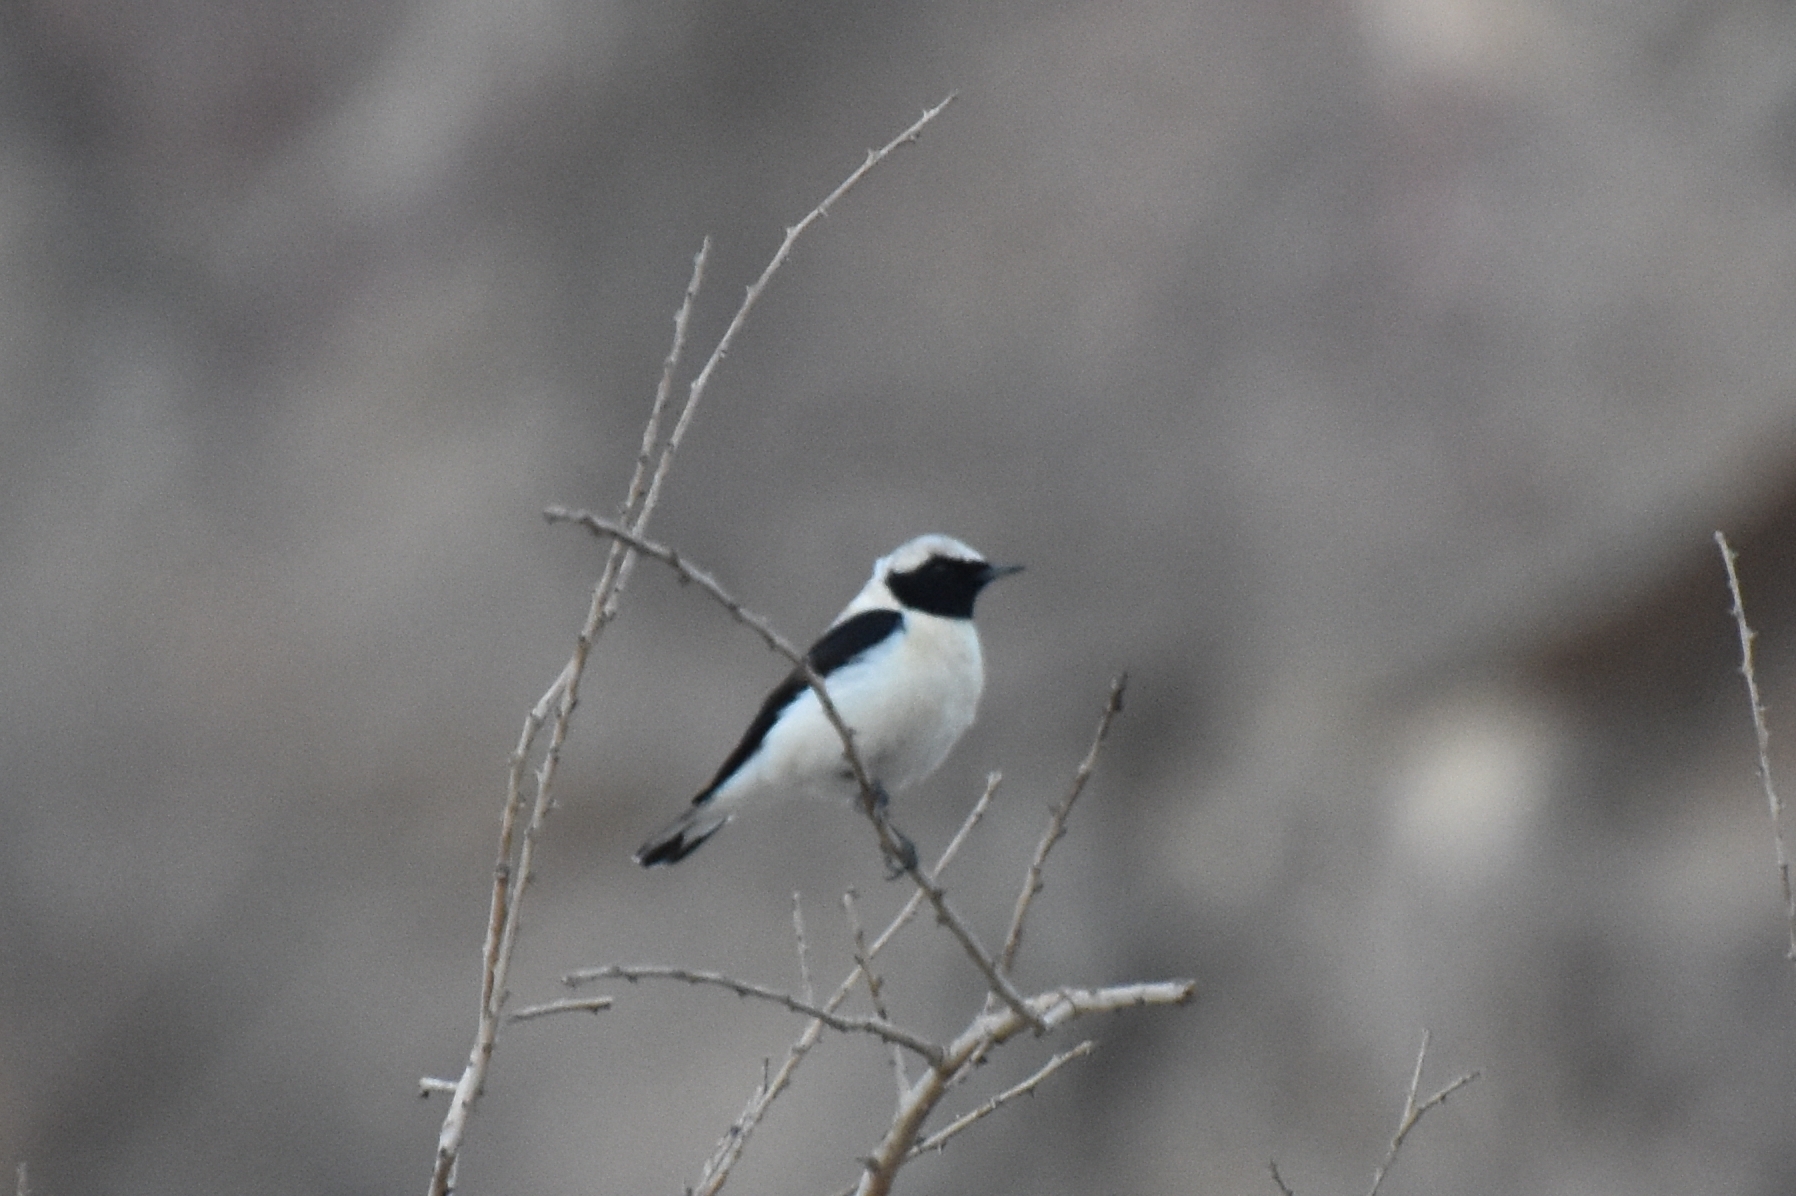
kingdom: Animalia
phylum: Chordata
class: Aves
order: Passeriformes
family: Muscicapidae
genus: Oenanthe
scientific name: Oenanthe hispanica
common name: Black-eared wheatear
